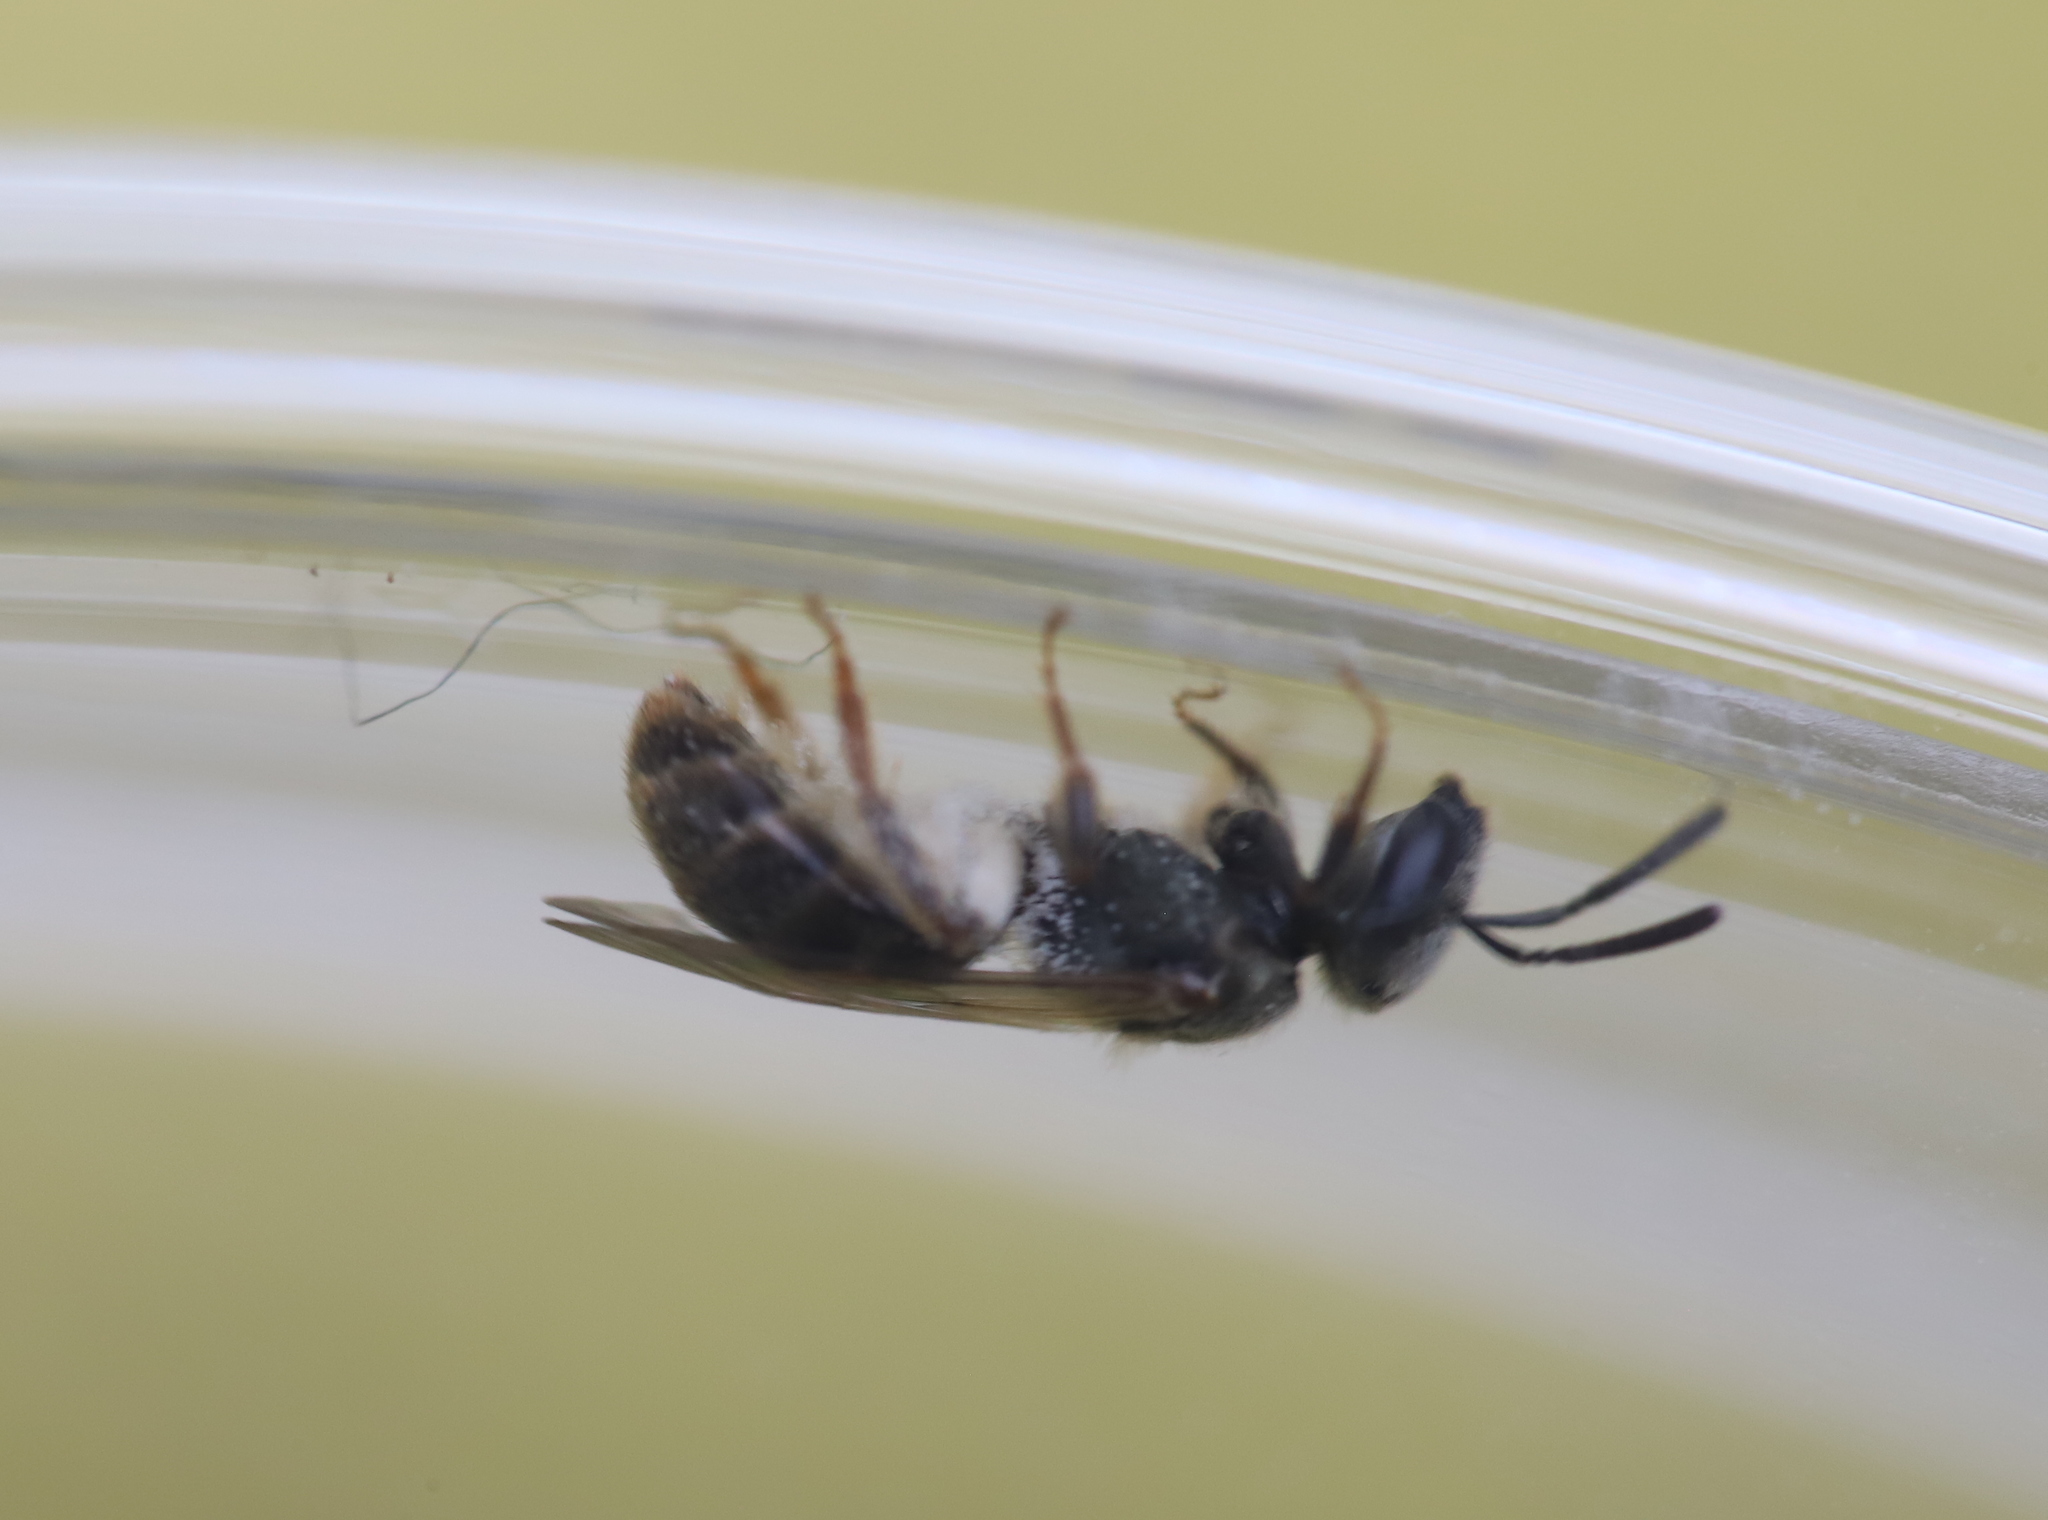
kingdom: Animalia
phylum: Arthropoda
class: Insecta
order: Hymenoptera
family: Halictidae
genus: Dialictus
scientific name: Dialictus
